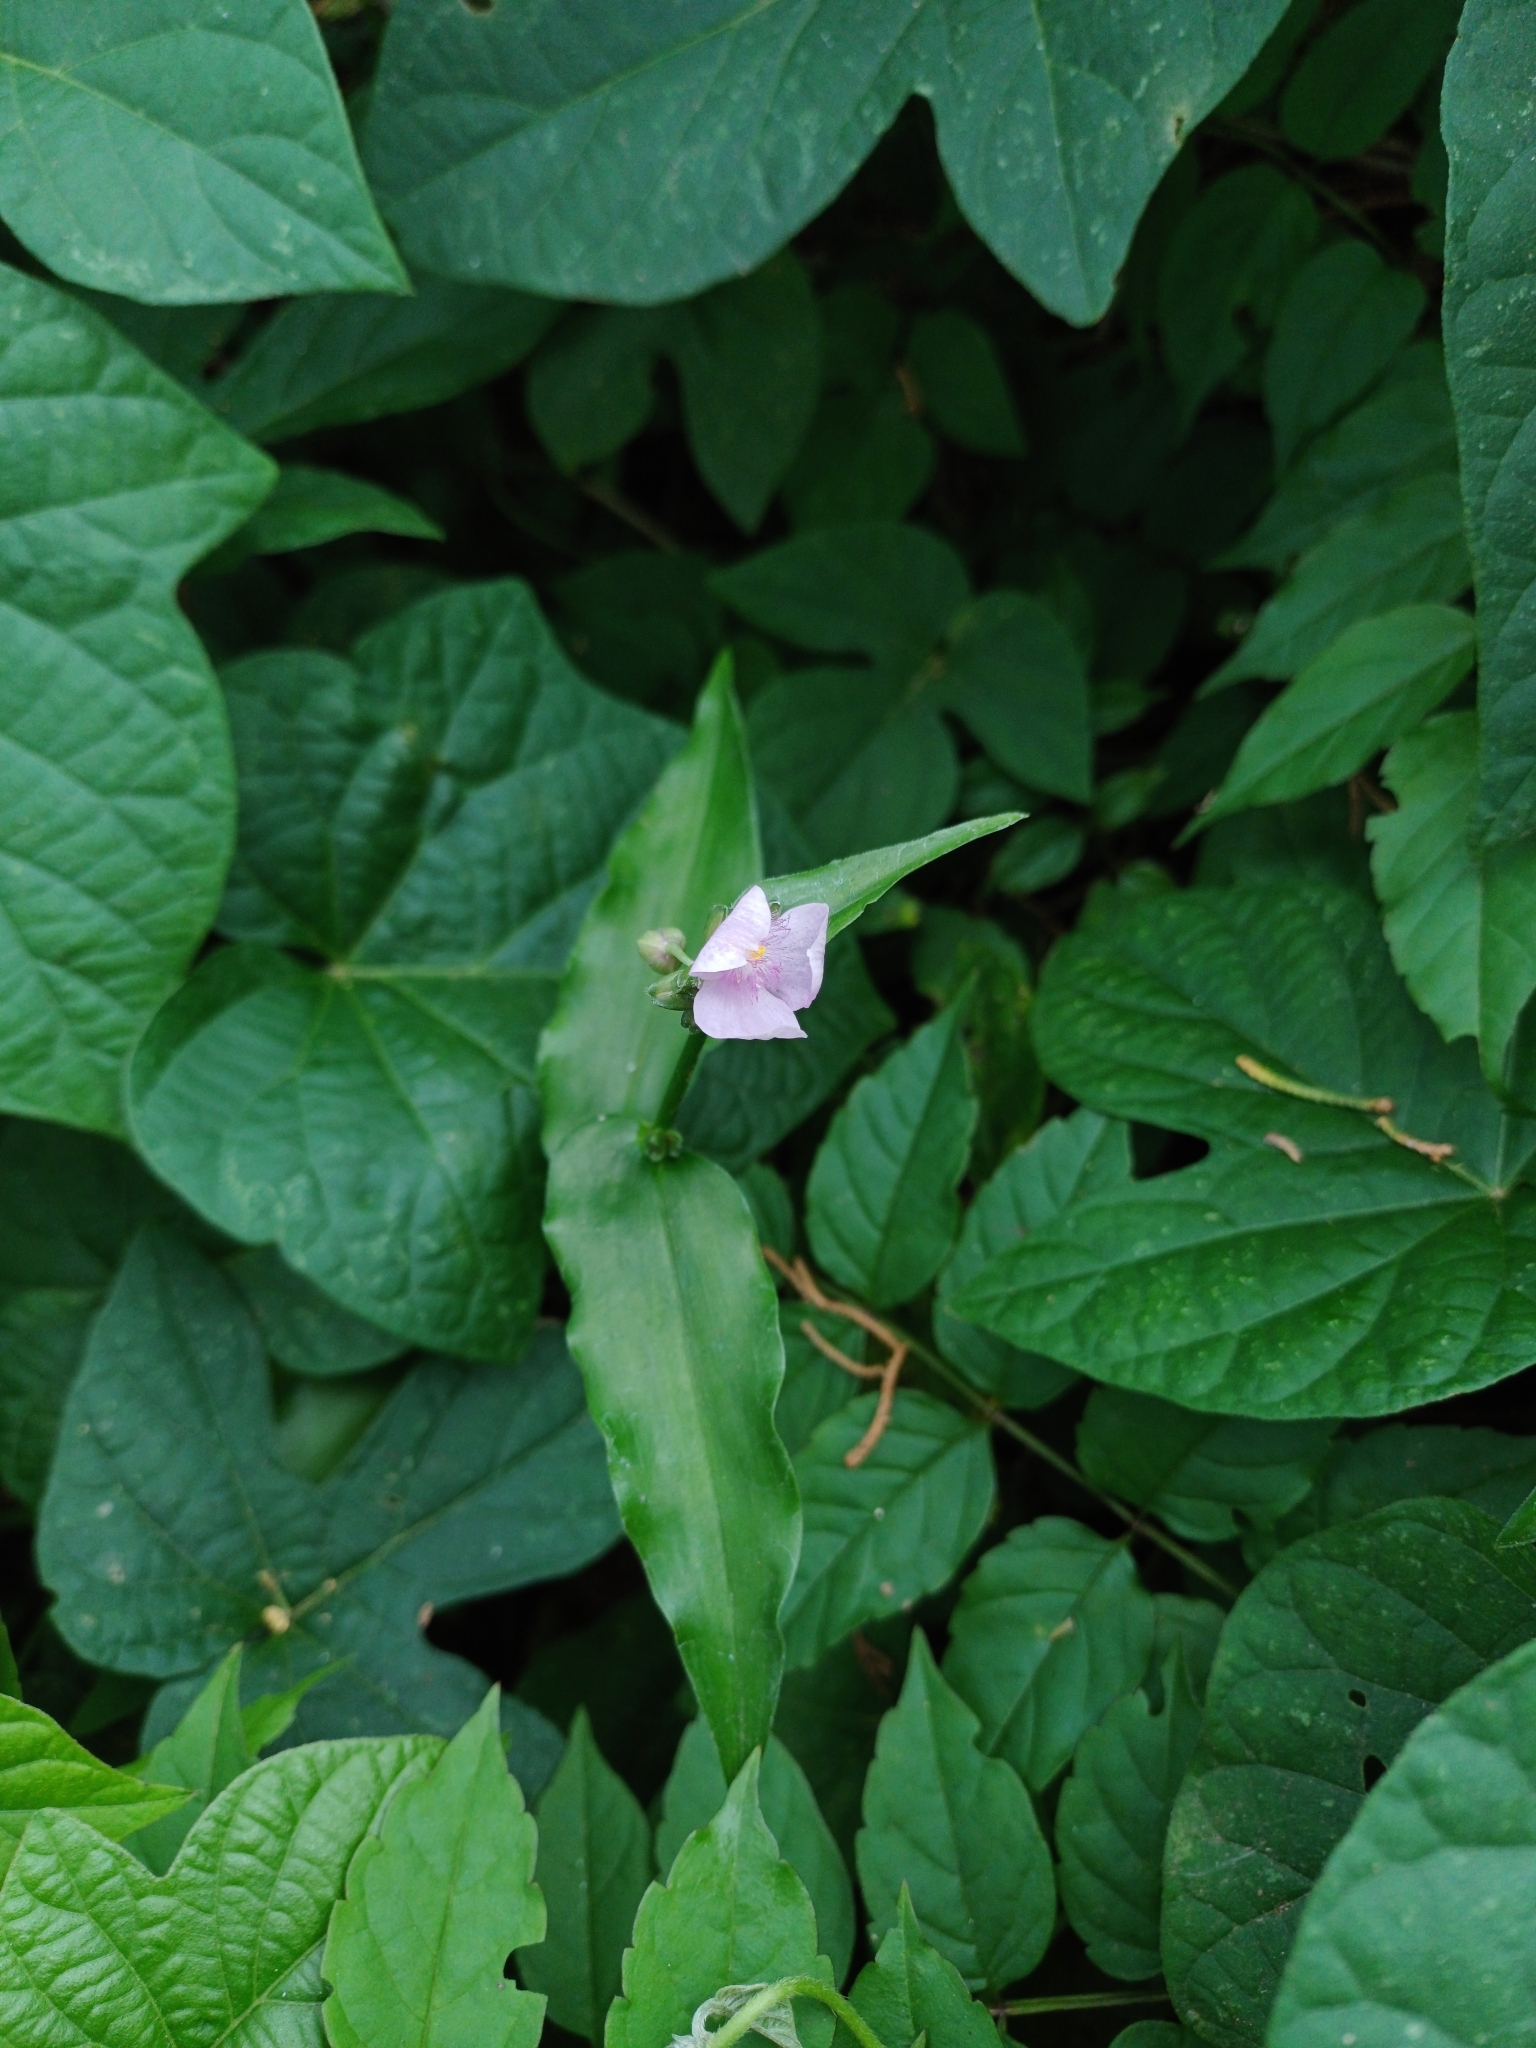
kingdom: Plantae
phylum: Tracheophyta
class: Liliopsida
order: Commelinales
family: Commelinaceae
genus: Callisia
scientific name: Callisia diuretica
